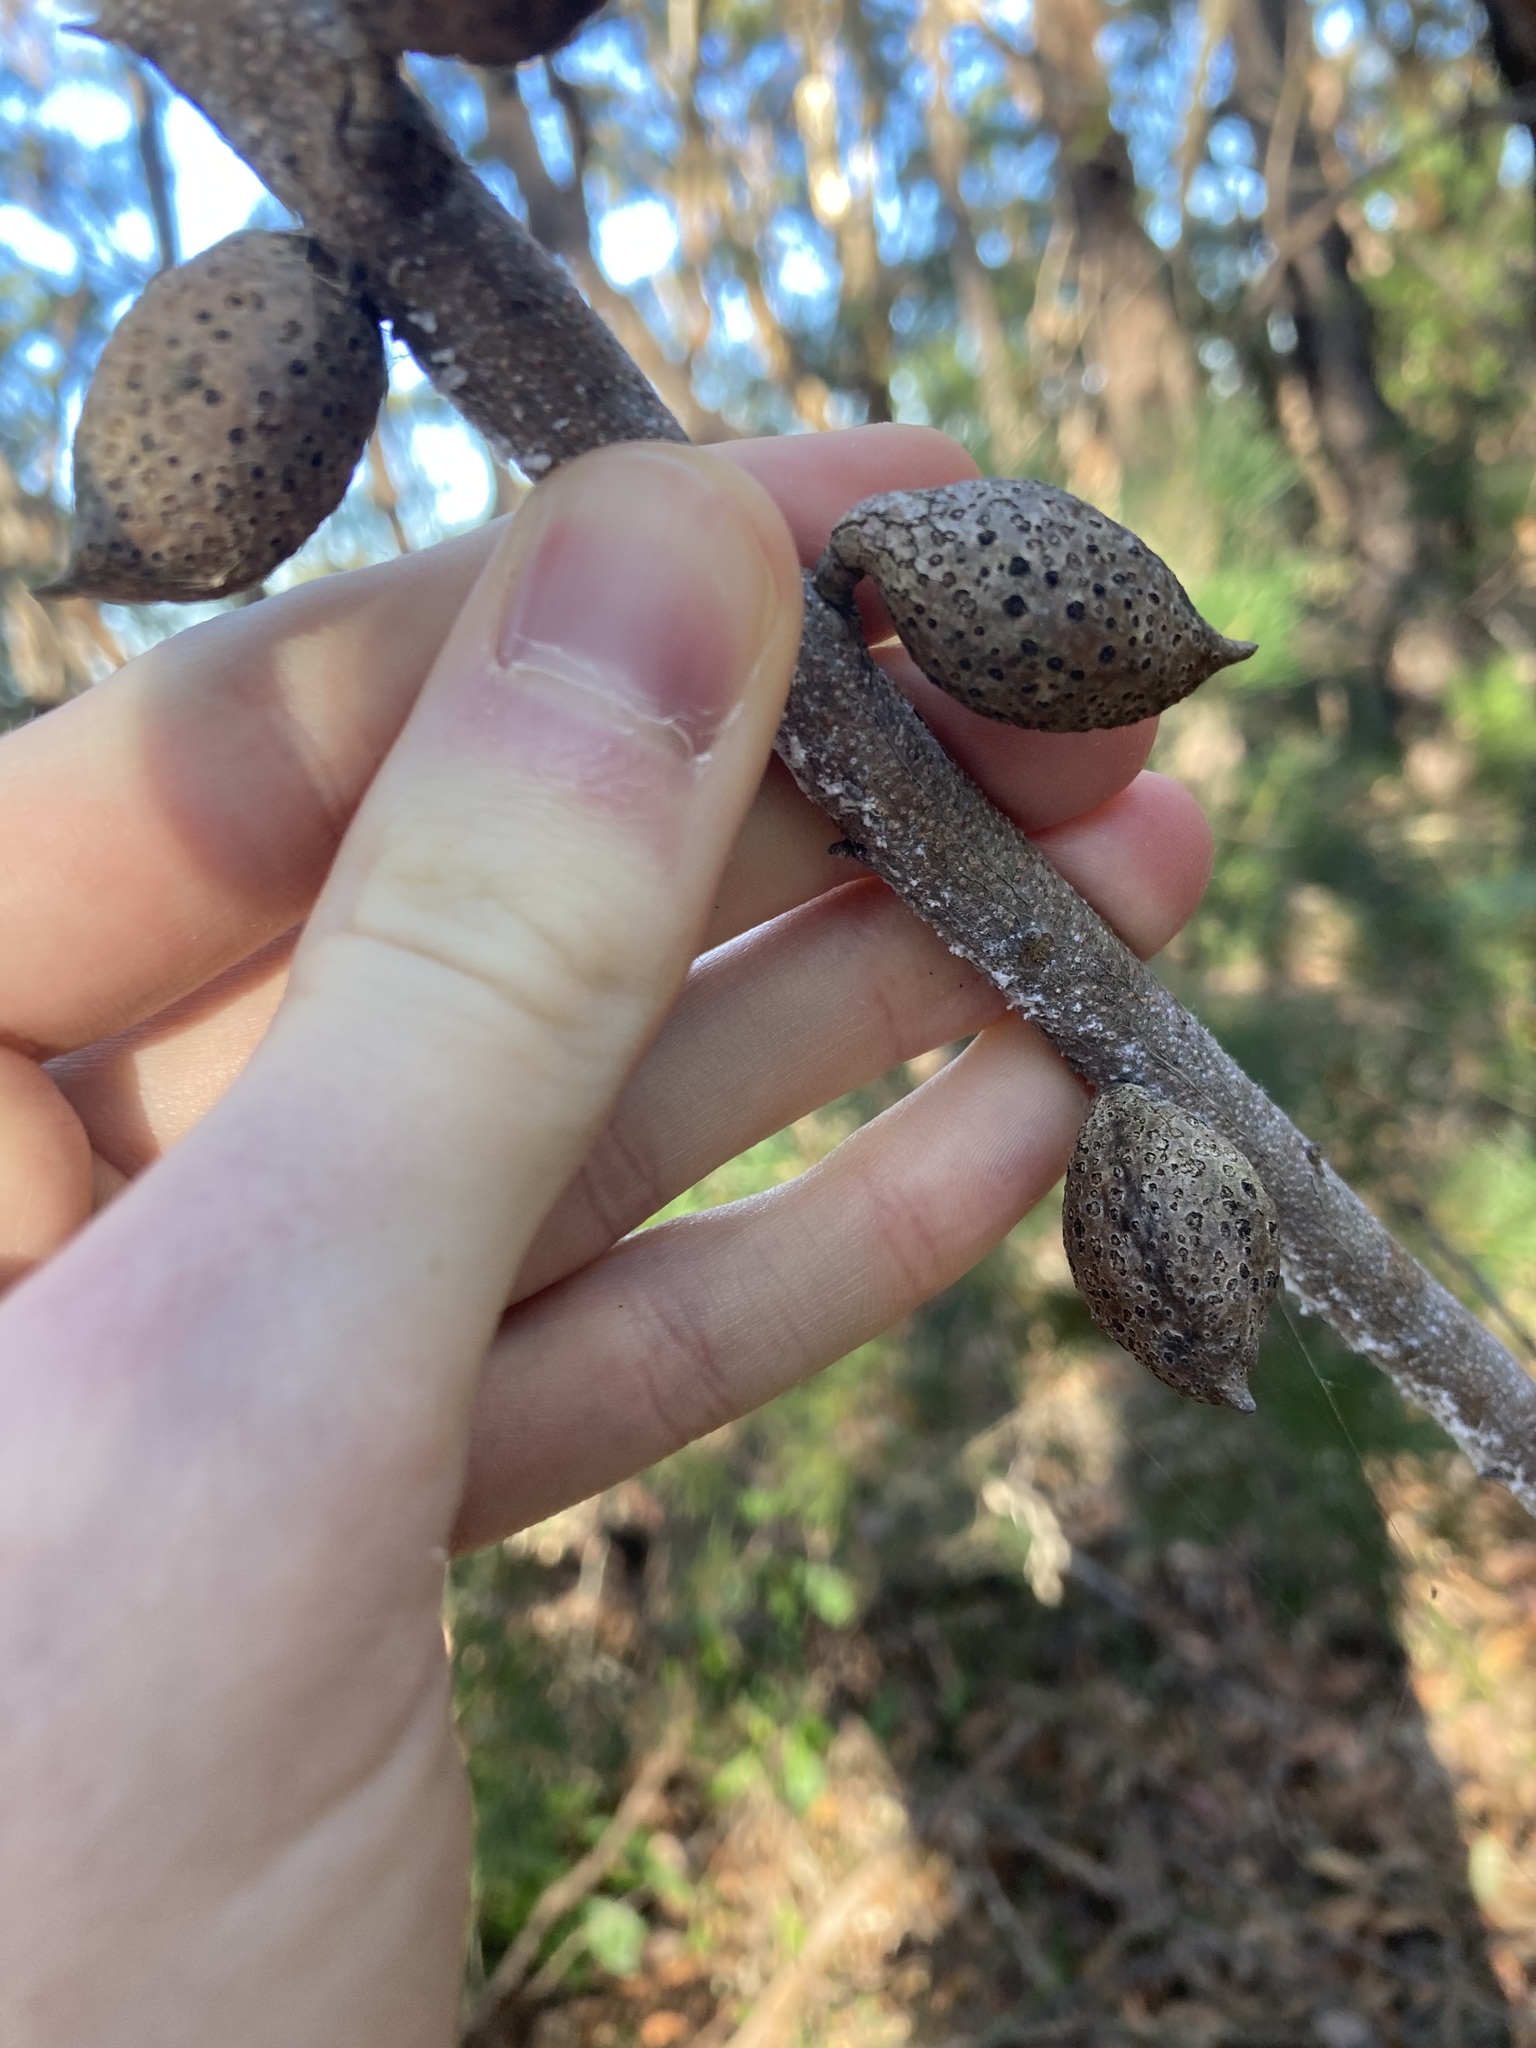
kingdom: Plantae
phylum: Tracheophyta
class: Magnoliopsida
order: Proteales
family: Proteaceae
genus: Hakea
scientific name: Hakea dactyloides
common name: Finger hakea
